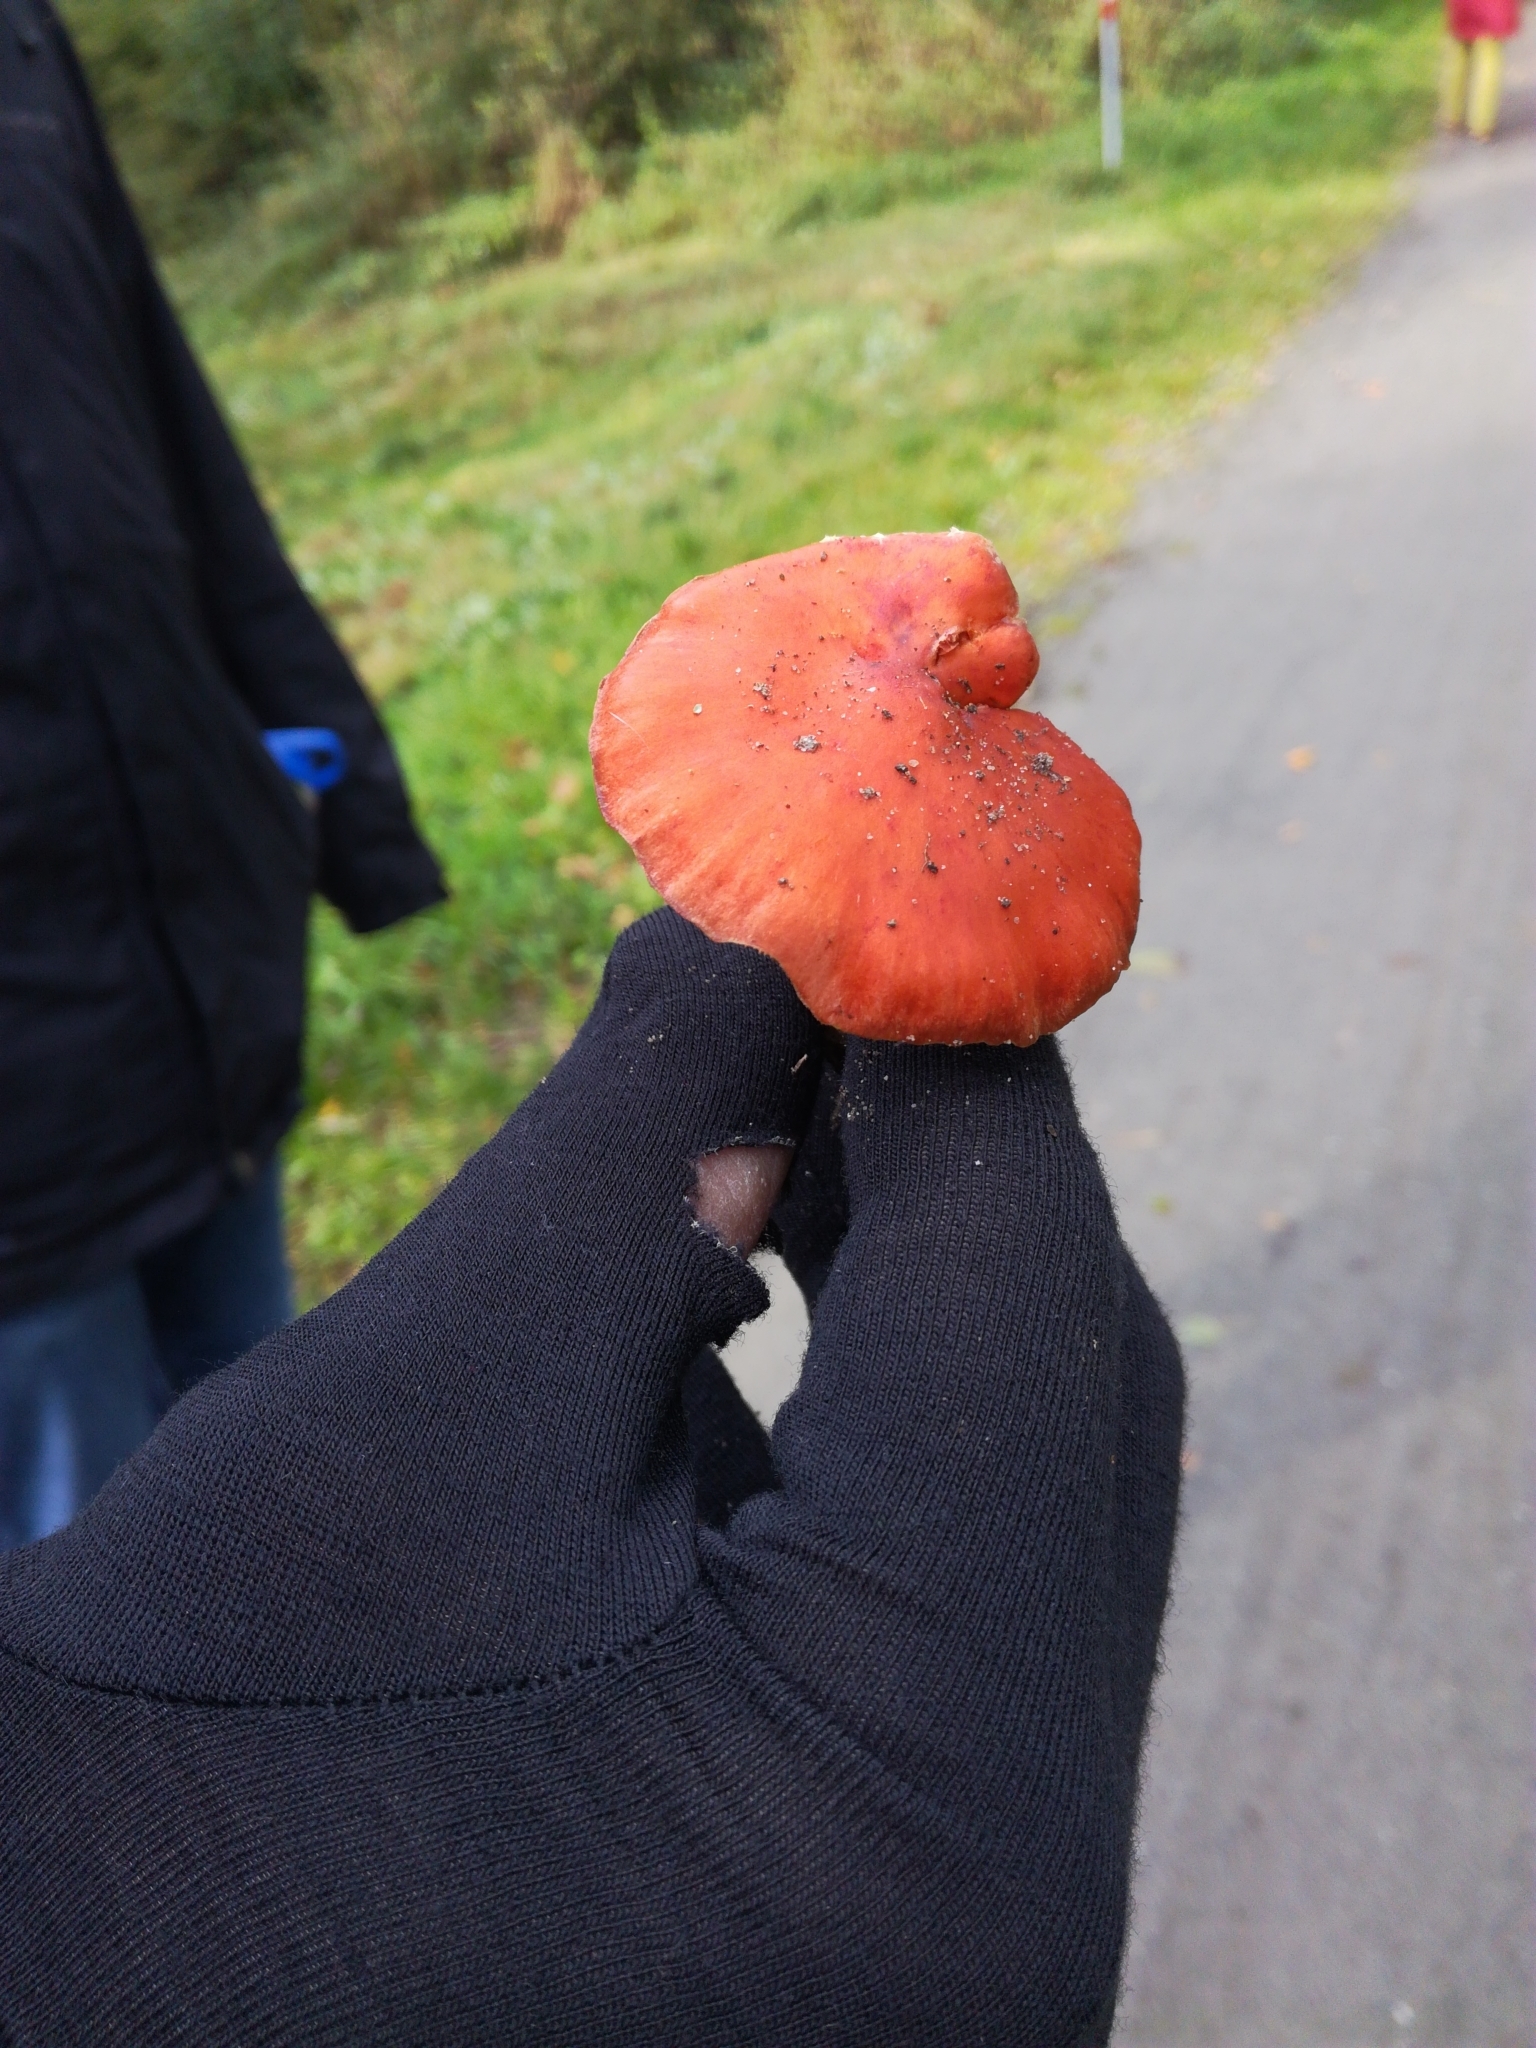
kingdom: Fungi
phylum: Basidiomycota
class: Agaricomycetes
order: Agaricales
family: Strophariaceae
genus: Leratiomyces
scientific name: Leratiomyces ceres
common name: Redlead roundhead
